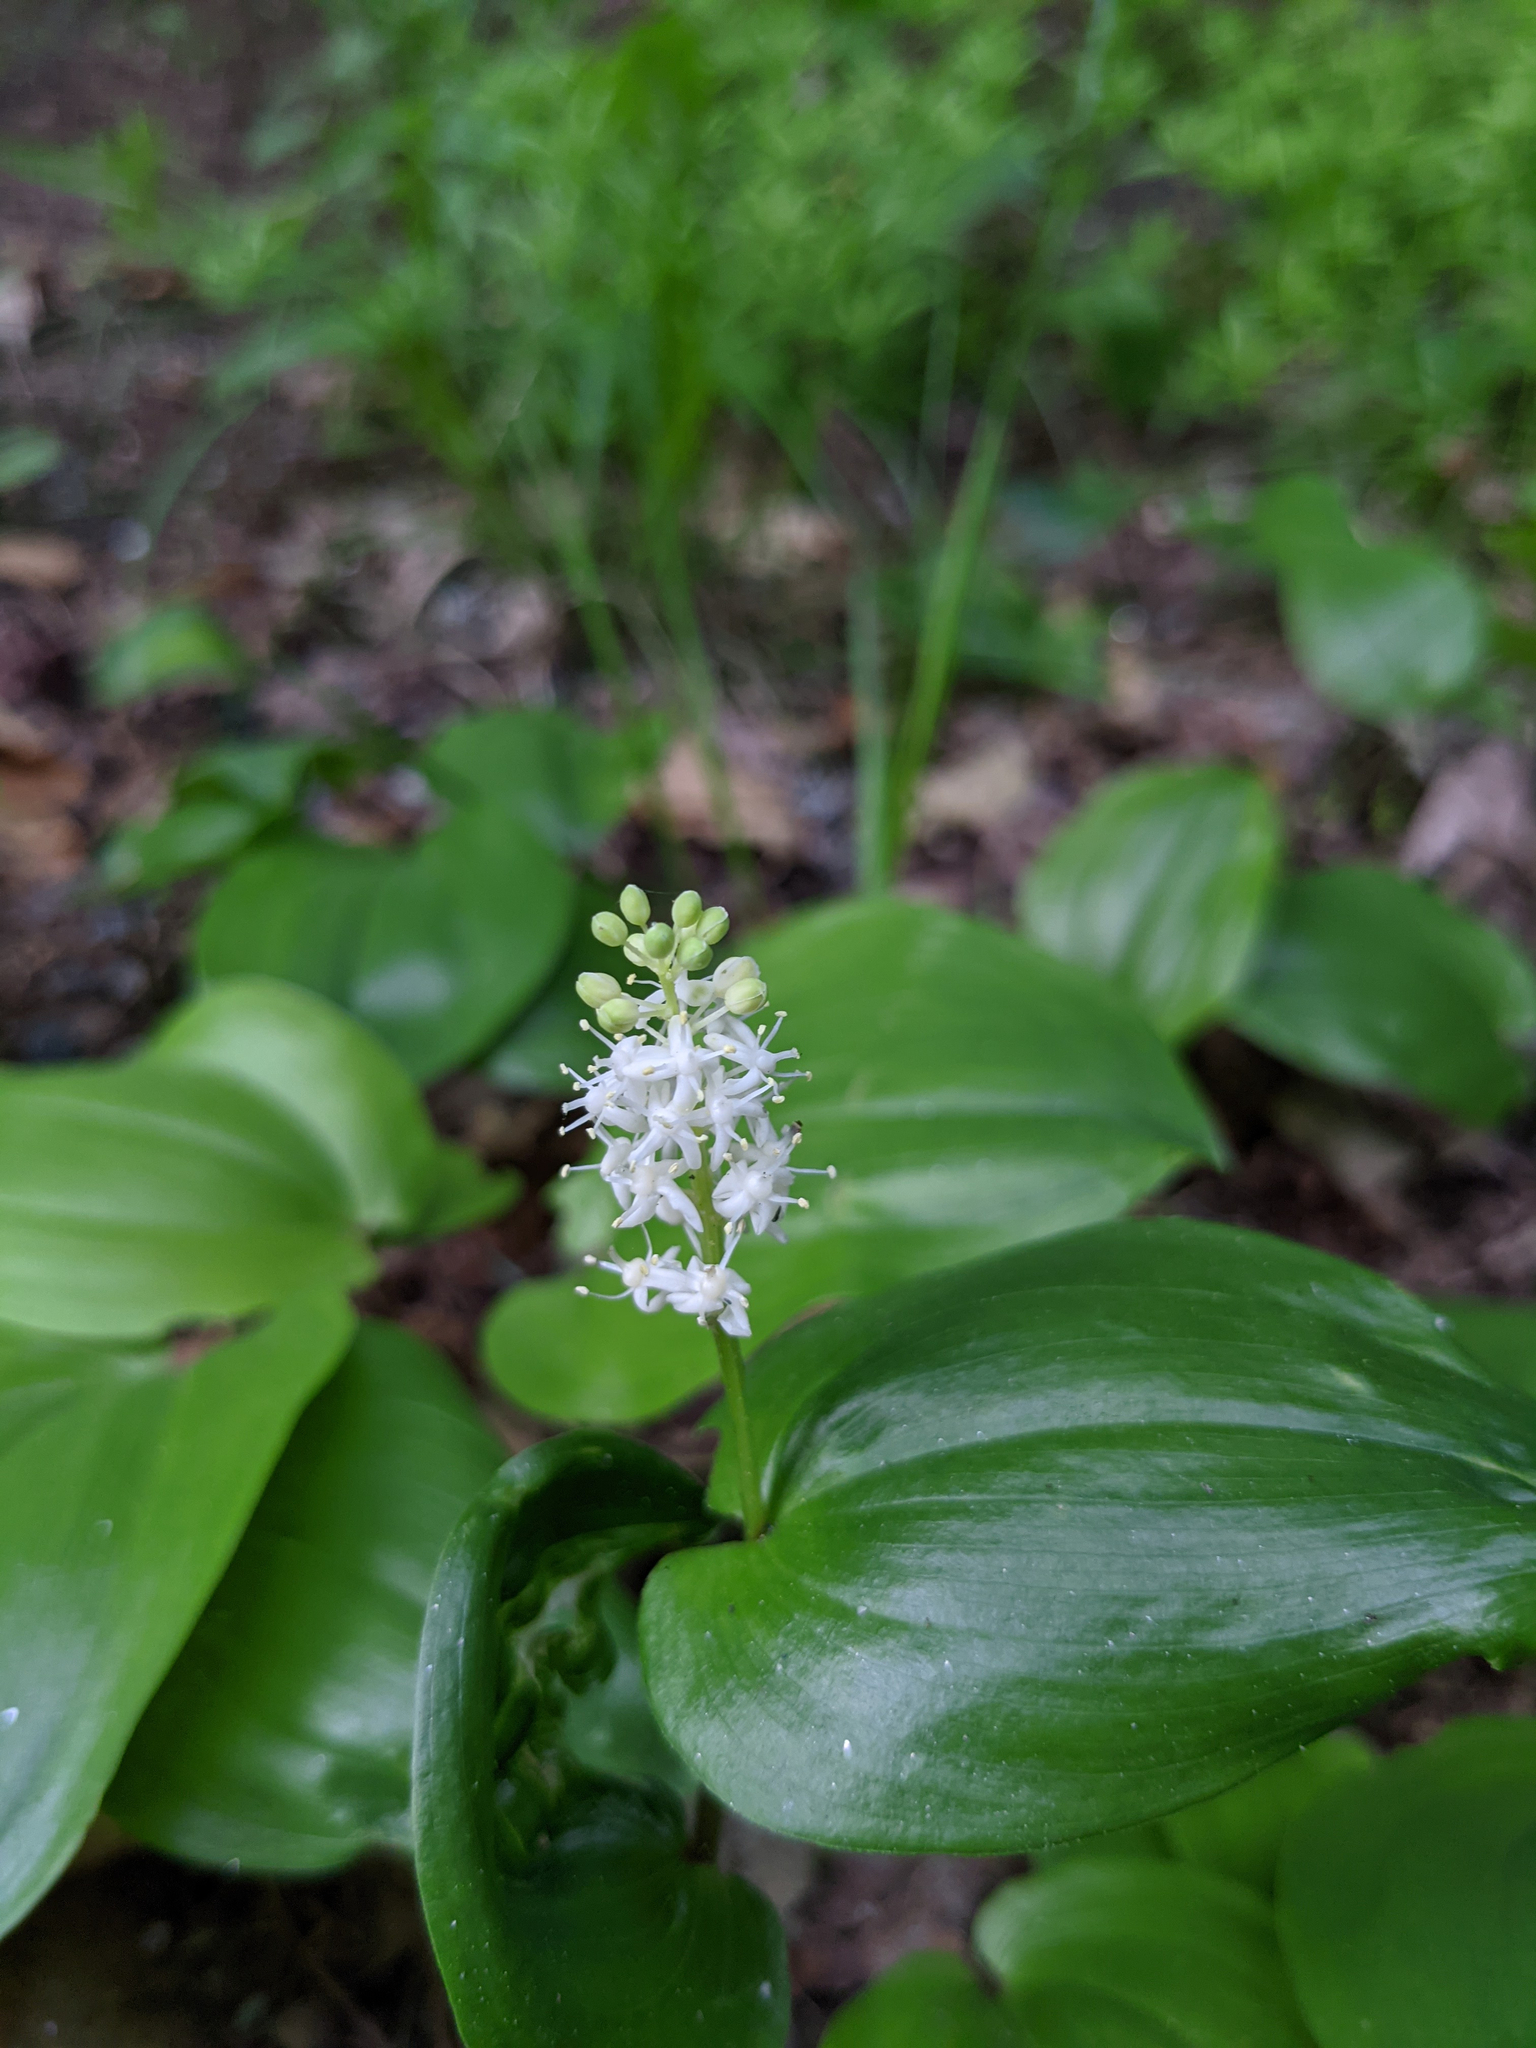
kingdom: Plantae
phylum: Tracheophyta
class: Liliopsida
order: Asparagales
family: Asparagaceae
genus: Maianthemum
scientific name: Maianthemum canadense
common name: False lily-of-the-valley
